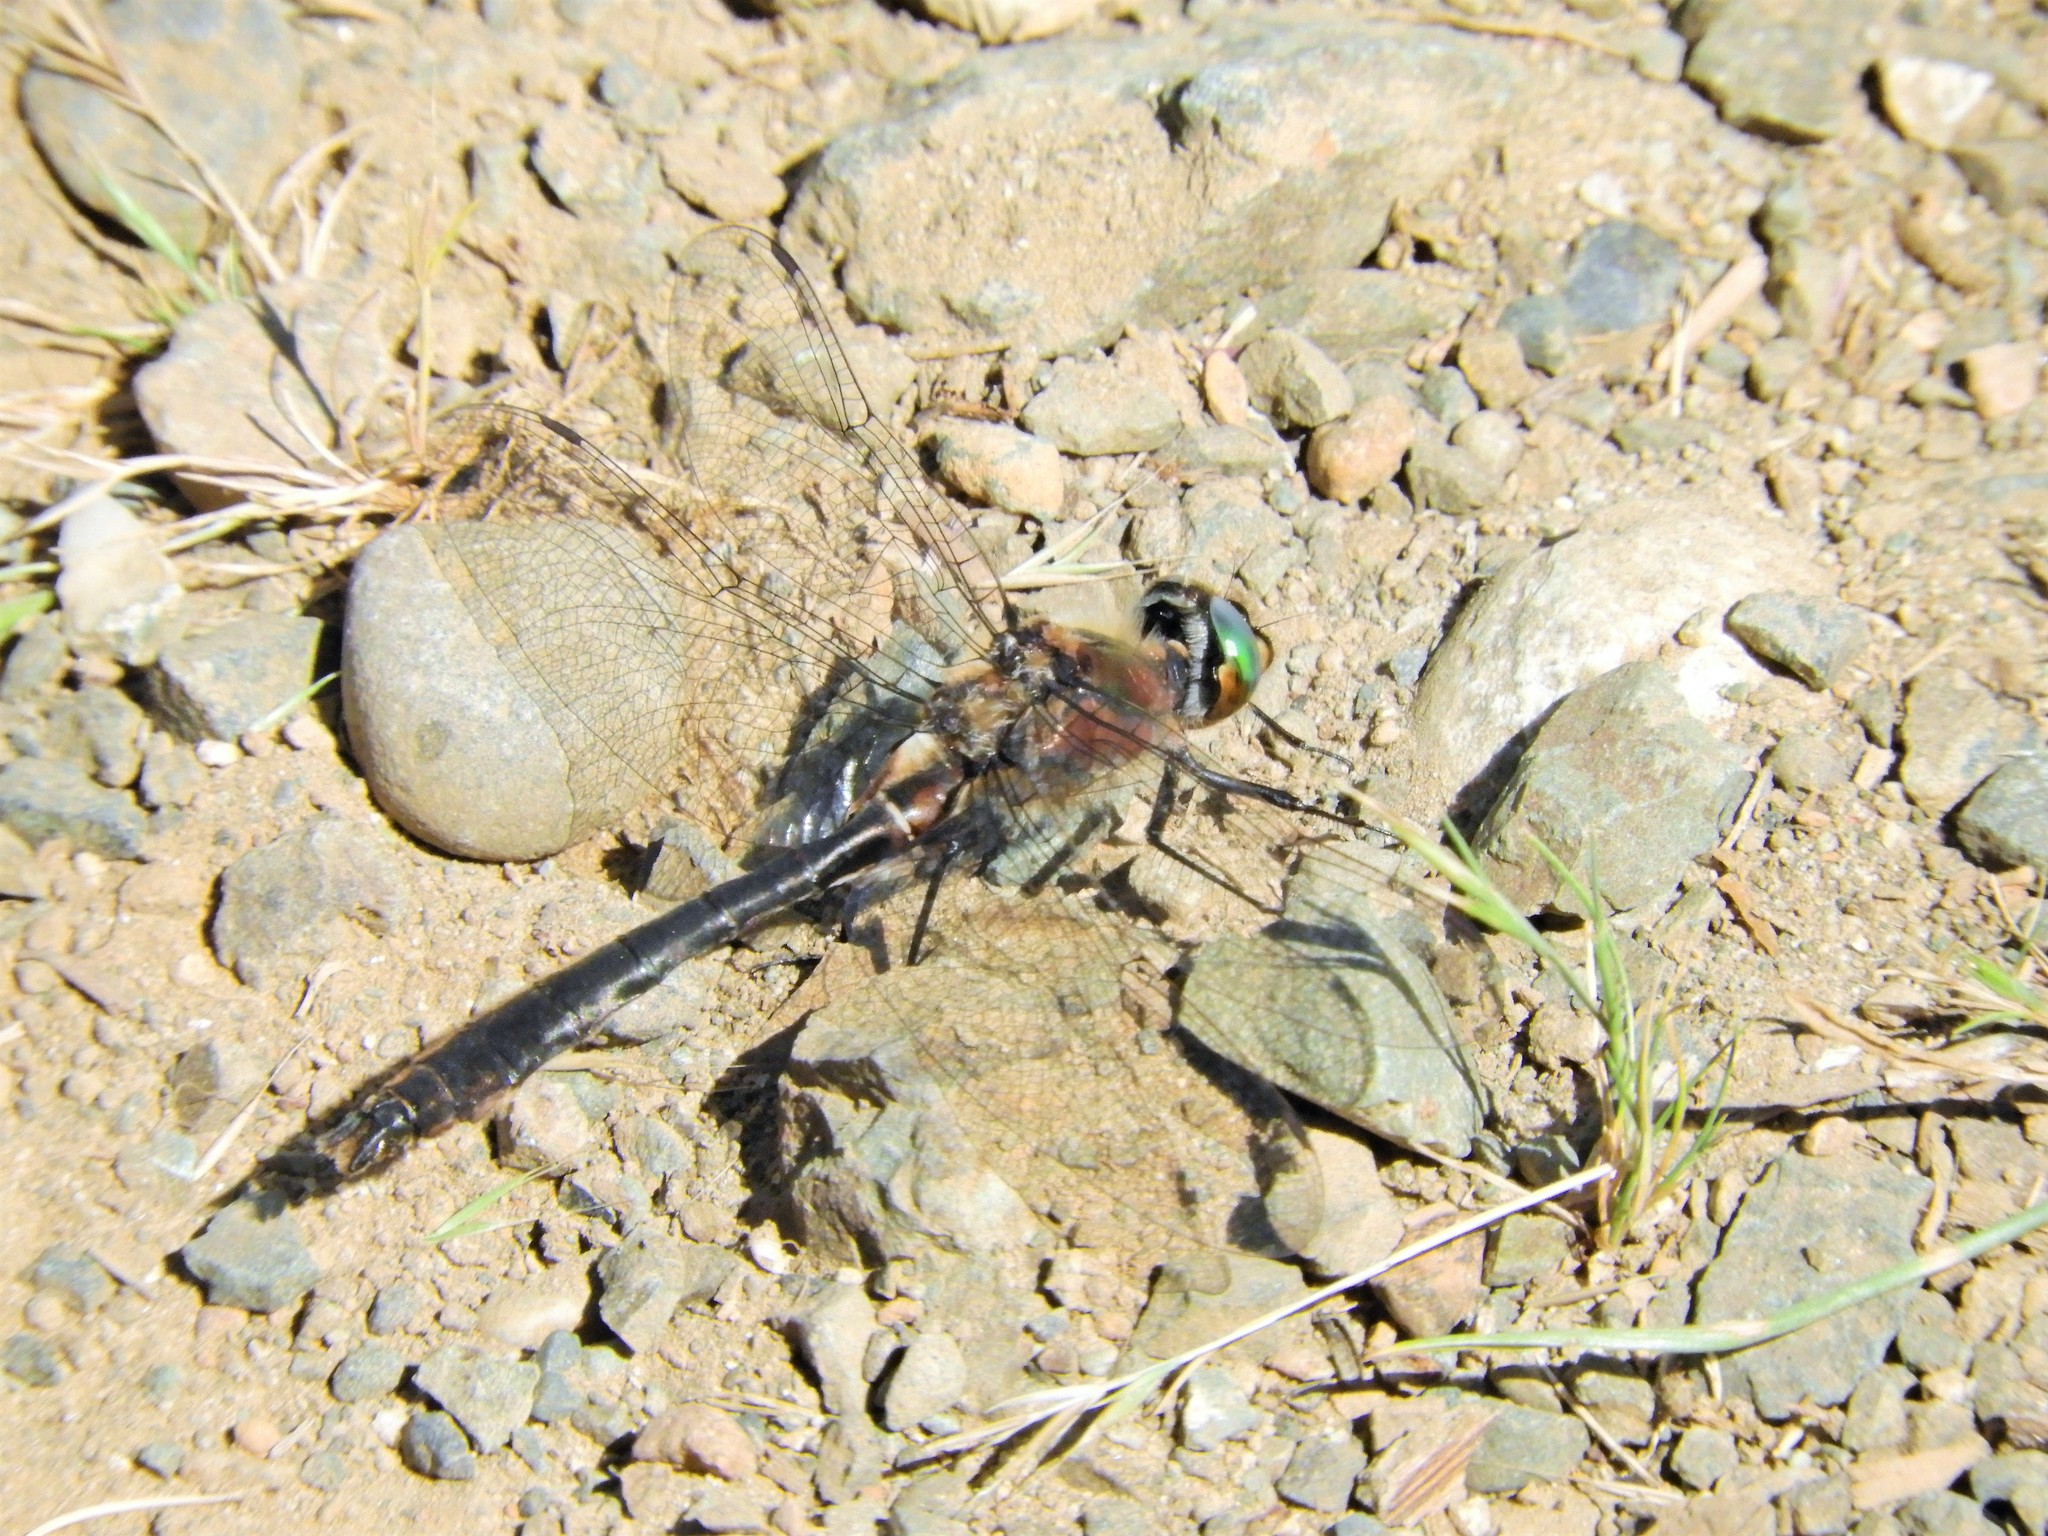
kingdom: Animalia
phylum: Arthropoda
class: Insecta
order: Odonata
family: Corduliidae
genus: Cordulia
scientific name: Cordulia shurtleffii
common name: American emerald
